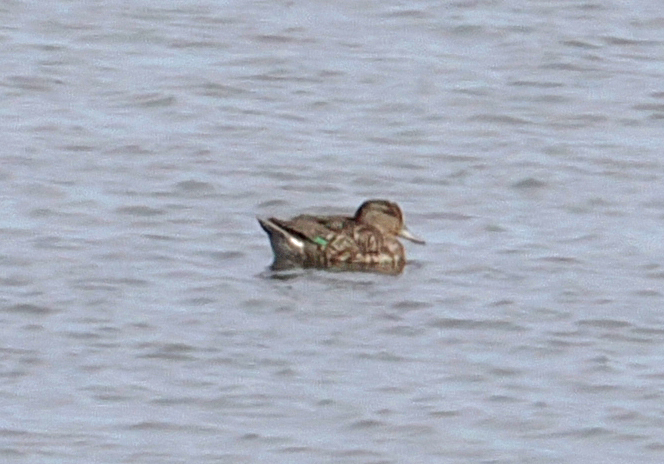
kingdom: Animalia
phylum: Chordata
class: Aves
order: Anseriformes
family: Anatidae
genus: Anas
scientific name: Anas crecca
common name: Eurasian teal
